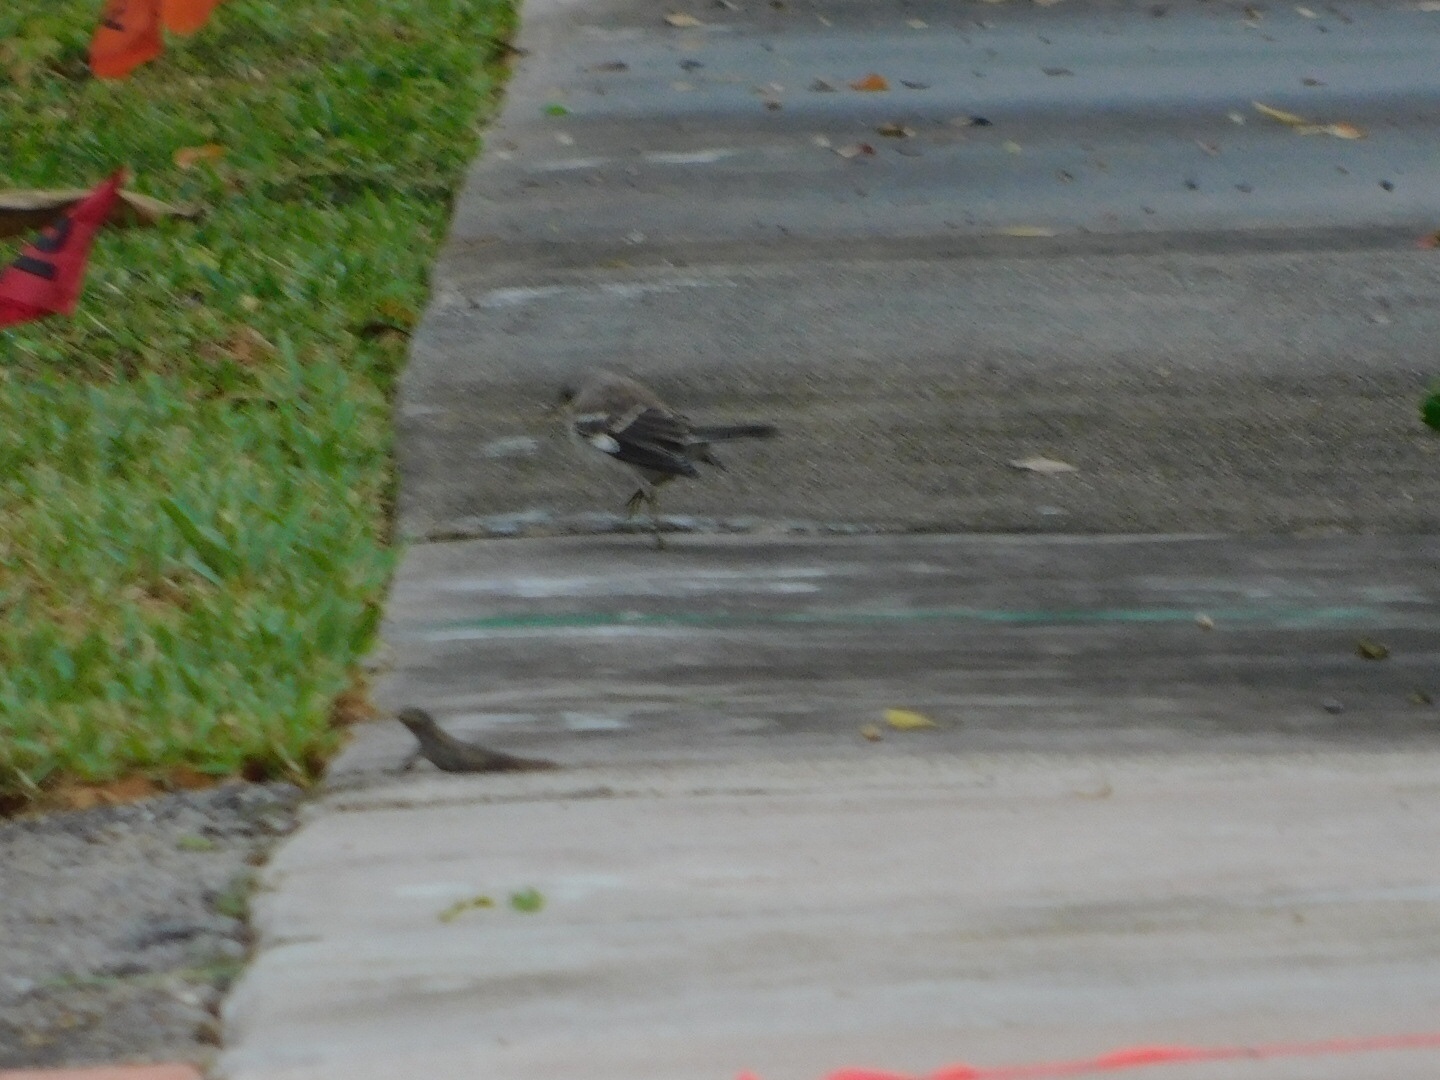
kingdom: Animalia
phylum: Chordata
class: Aves
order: Passeriformes
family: Mimidae
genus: Mimus
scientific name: Mimus polyglottos
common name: Northern mockingbird
